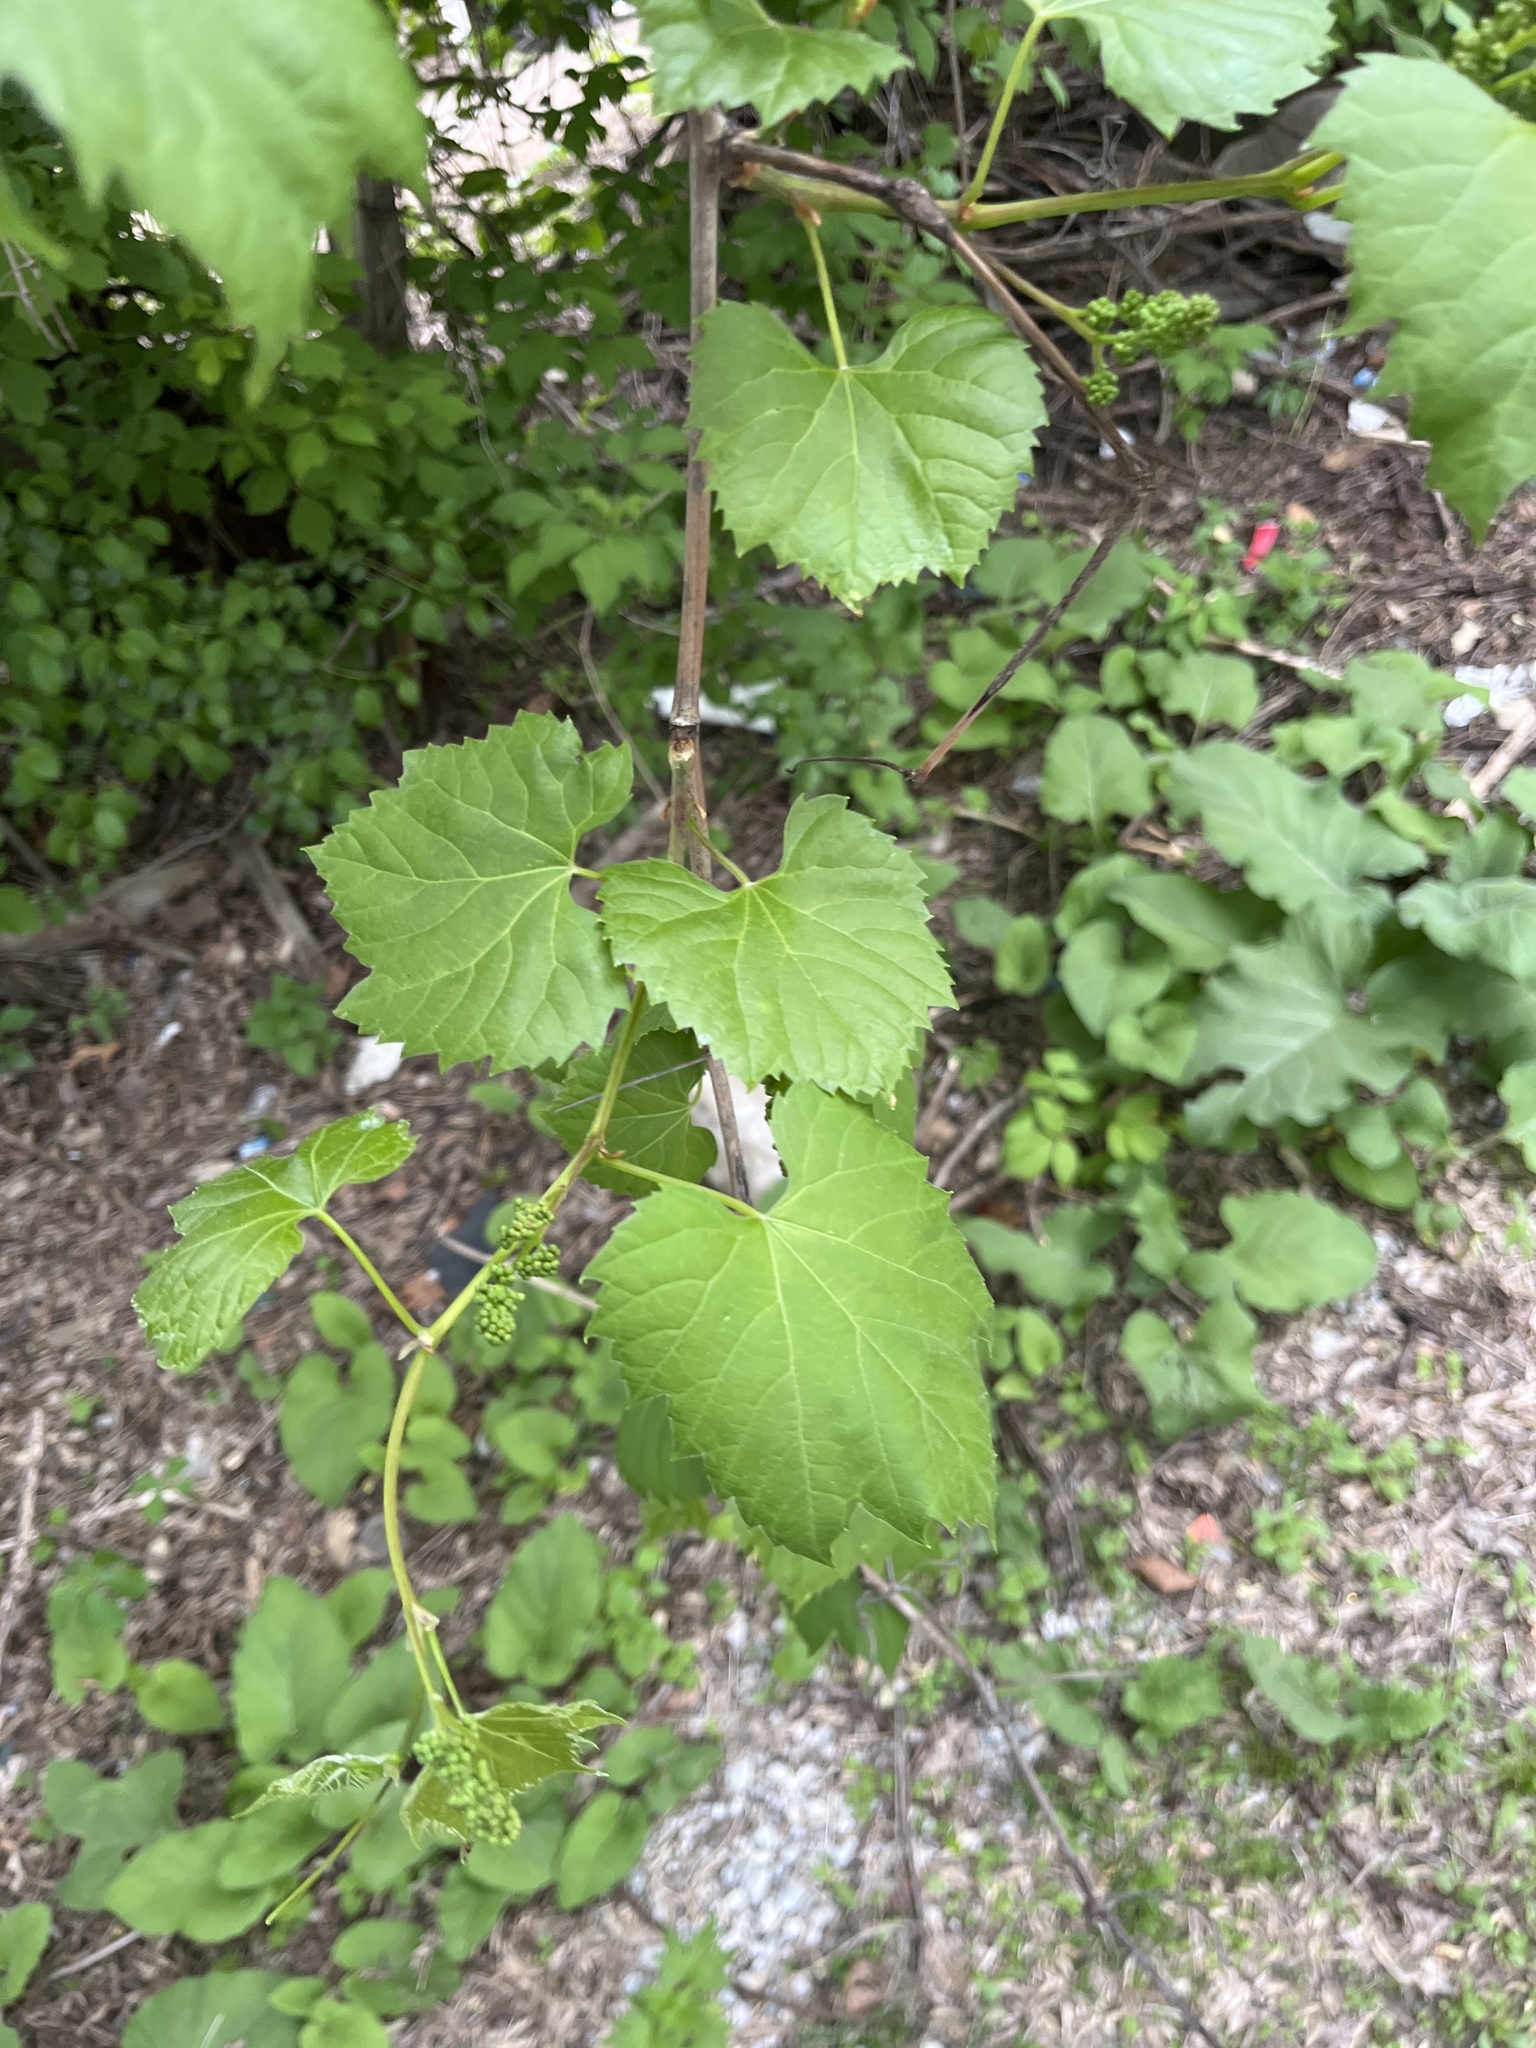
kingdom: Plantae
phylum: Tracheophyta
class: Magnoliopsida
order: Vitales
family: Vitaceae
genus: Vitis
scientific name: Vitis riparia
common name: Frost grape
